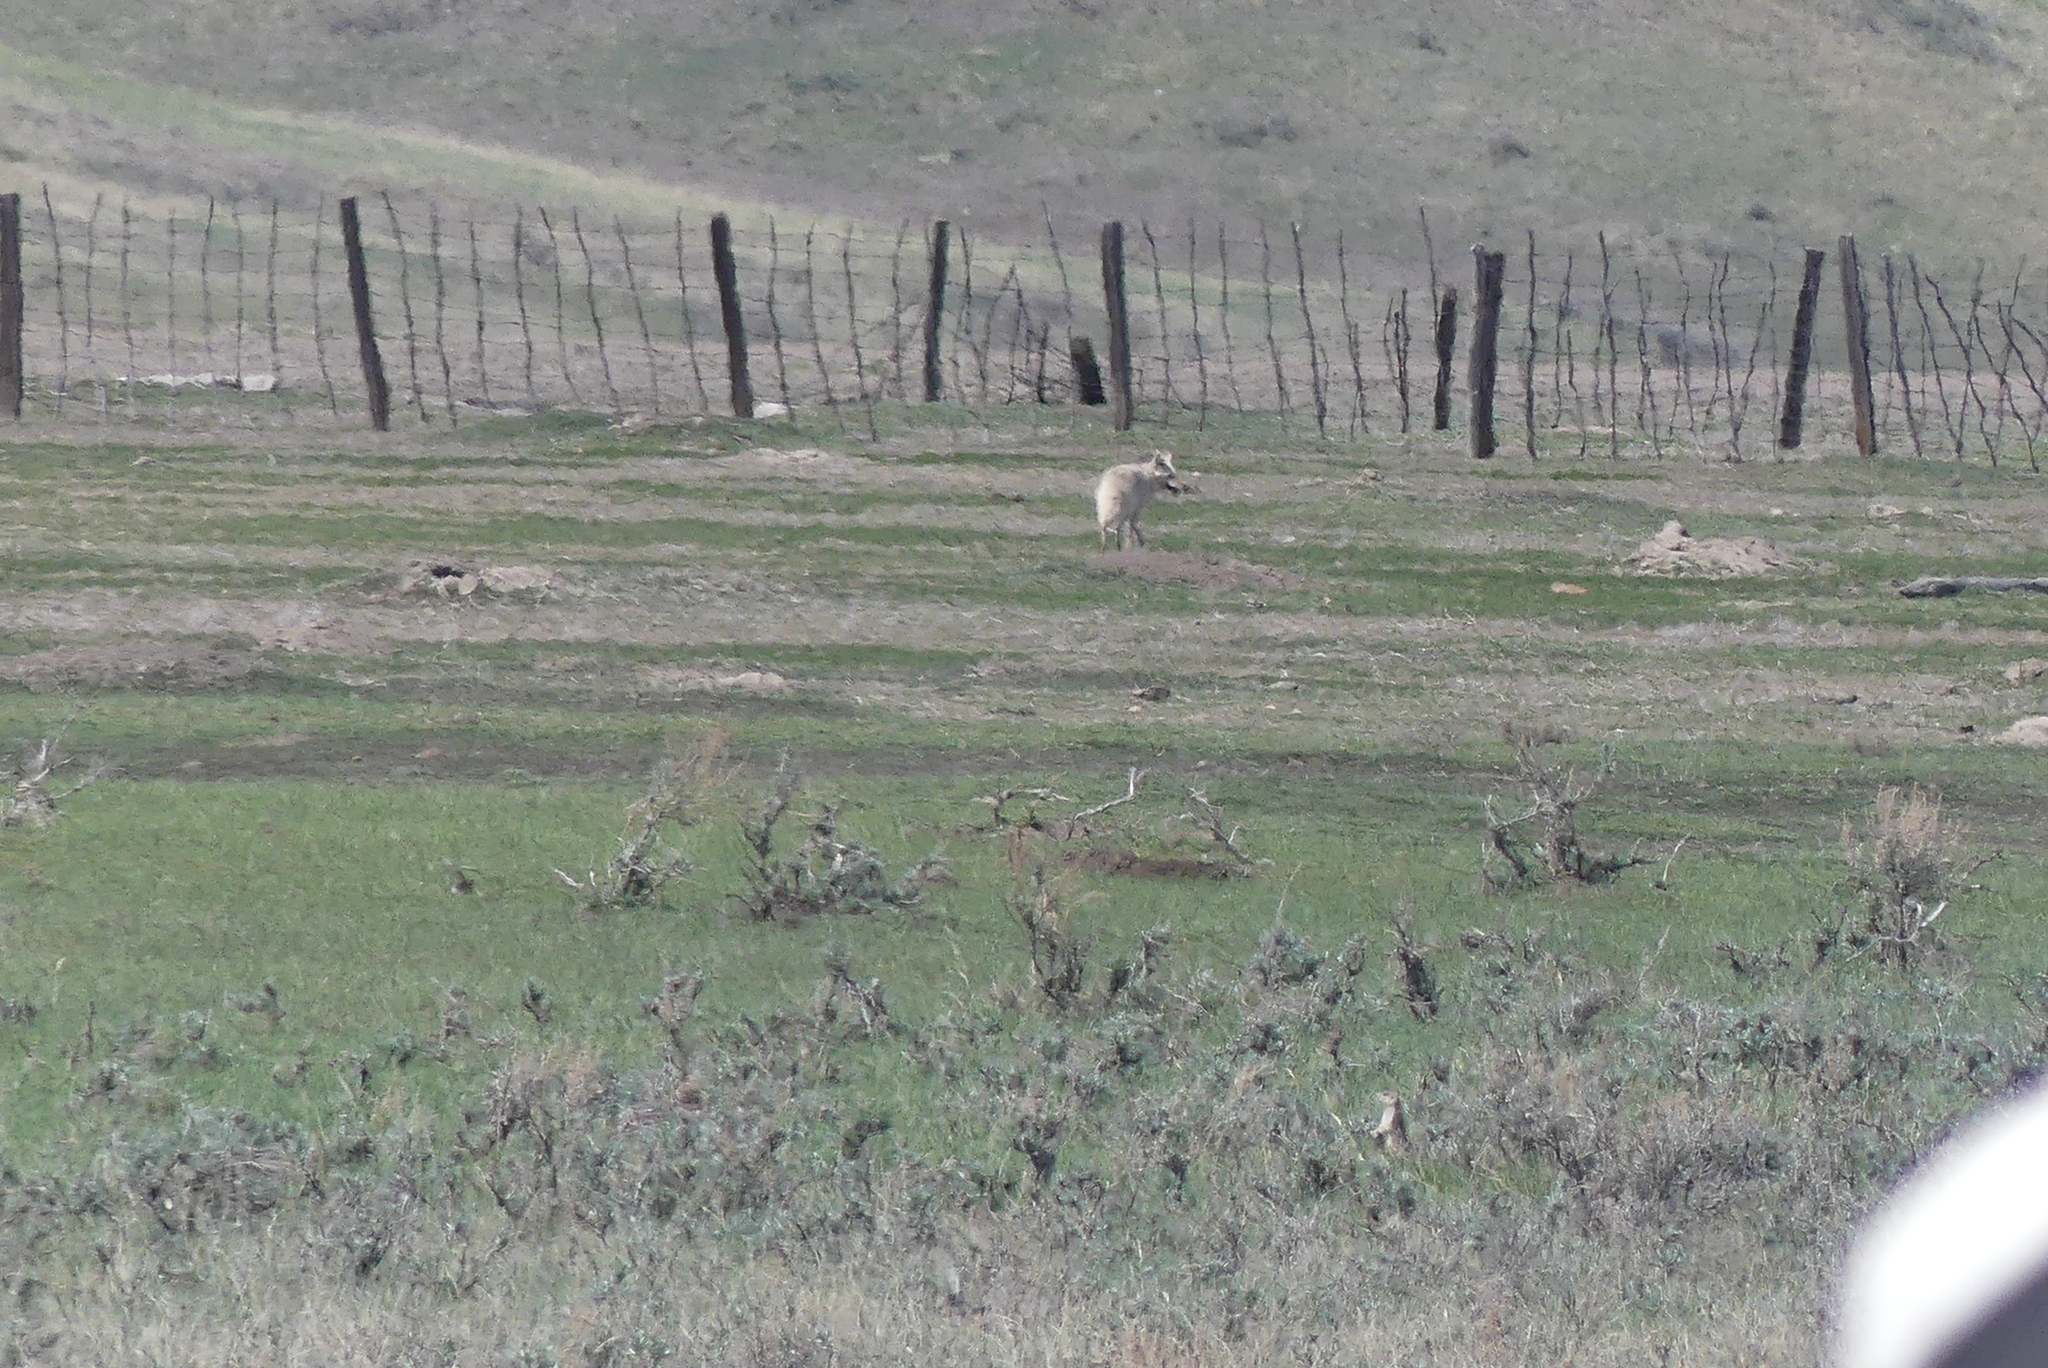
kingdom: Animalia
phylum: Chordata
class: Mammalia
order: Carnivora
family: Canidae
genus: Canis
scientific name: Canis latrans
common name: Coyote
